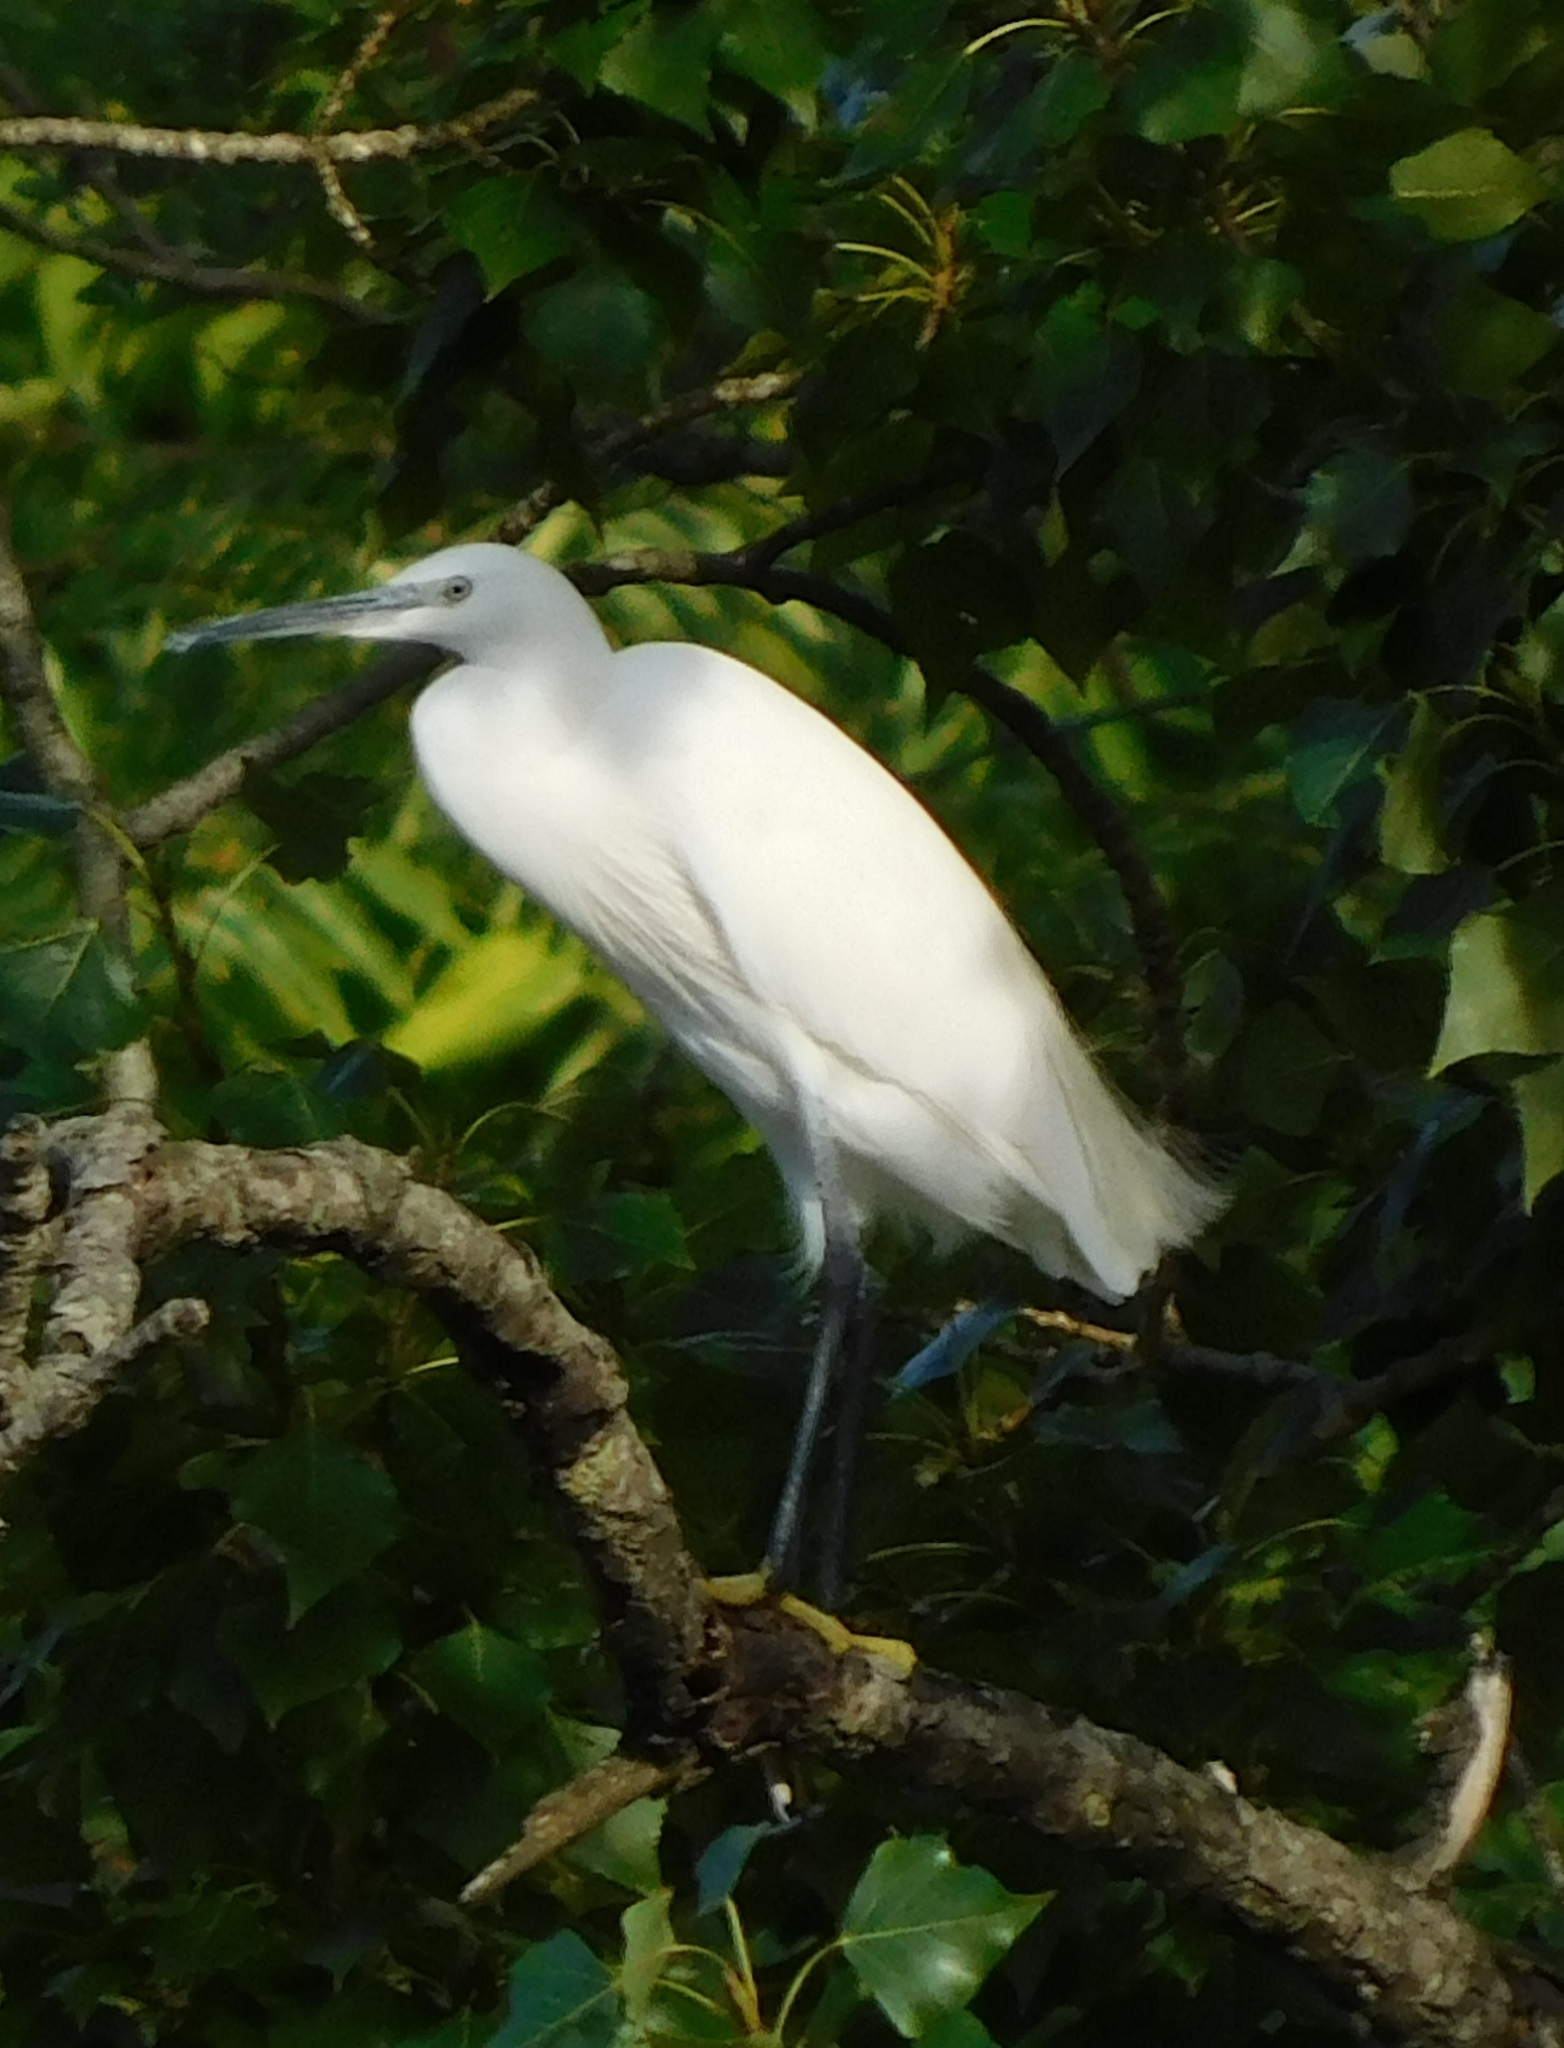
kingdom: Animalia
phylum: Chordata
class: Aves
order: Pelecaniformes
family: Ardeidae
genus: Egretta
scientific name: Egretta garzetta
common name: Little egret
